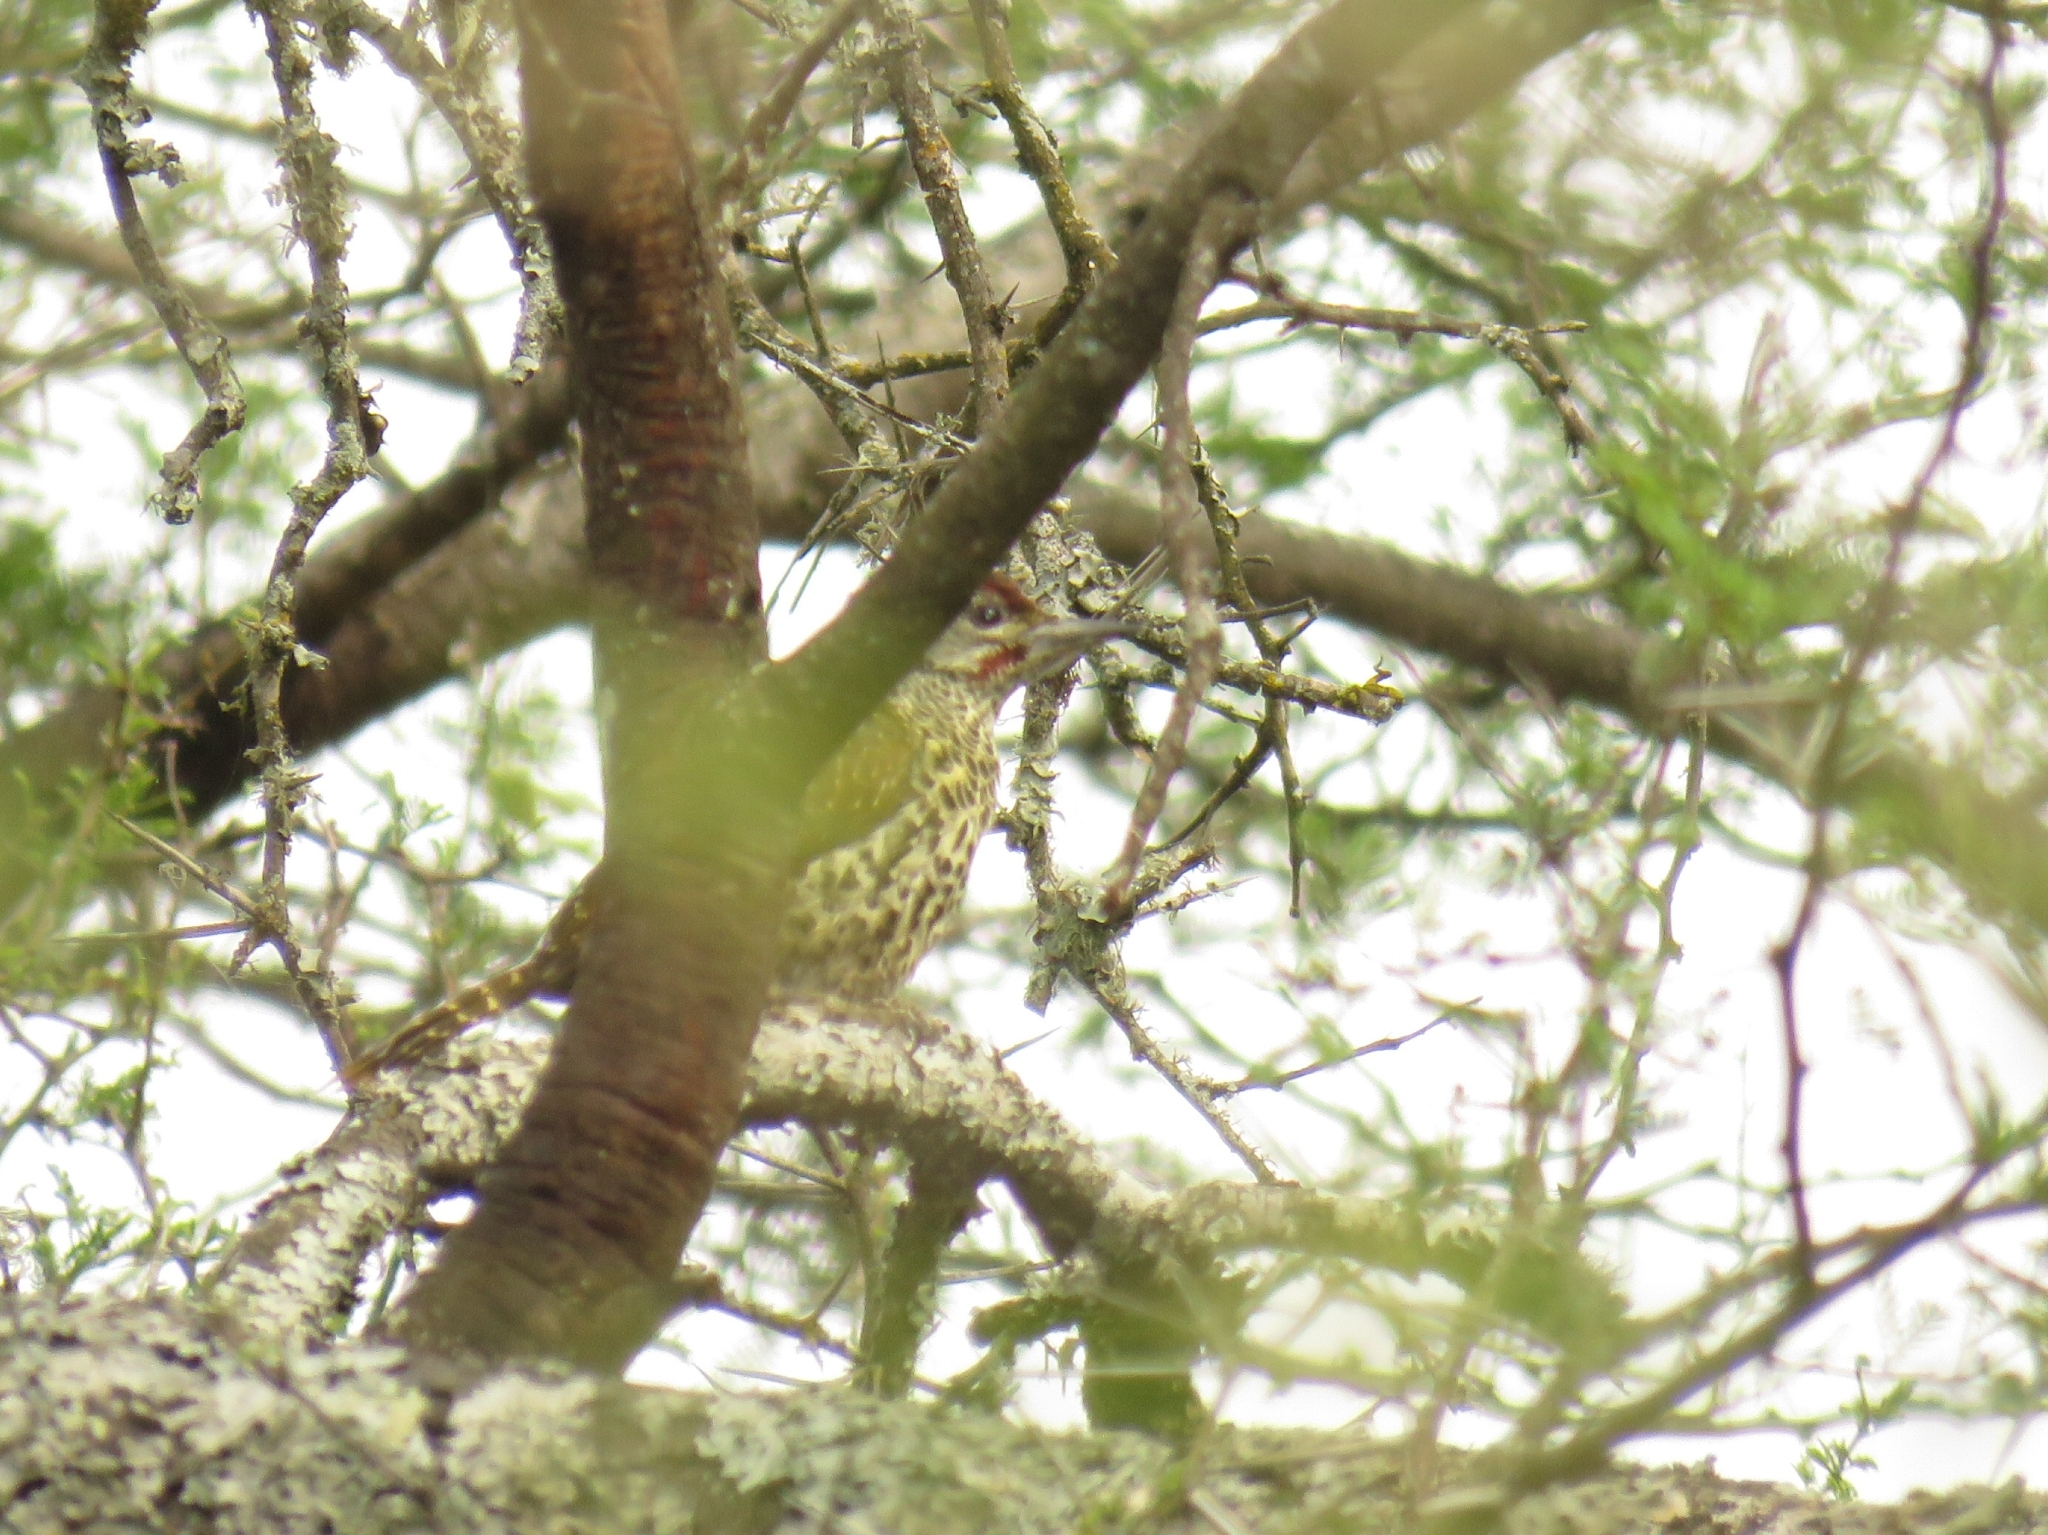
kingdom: Animalia
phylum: Chordata
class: Aves
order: Piciformes
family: Picidae
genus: Campethera
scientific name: Campethera notata
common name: Knysna woodpecker
